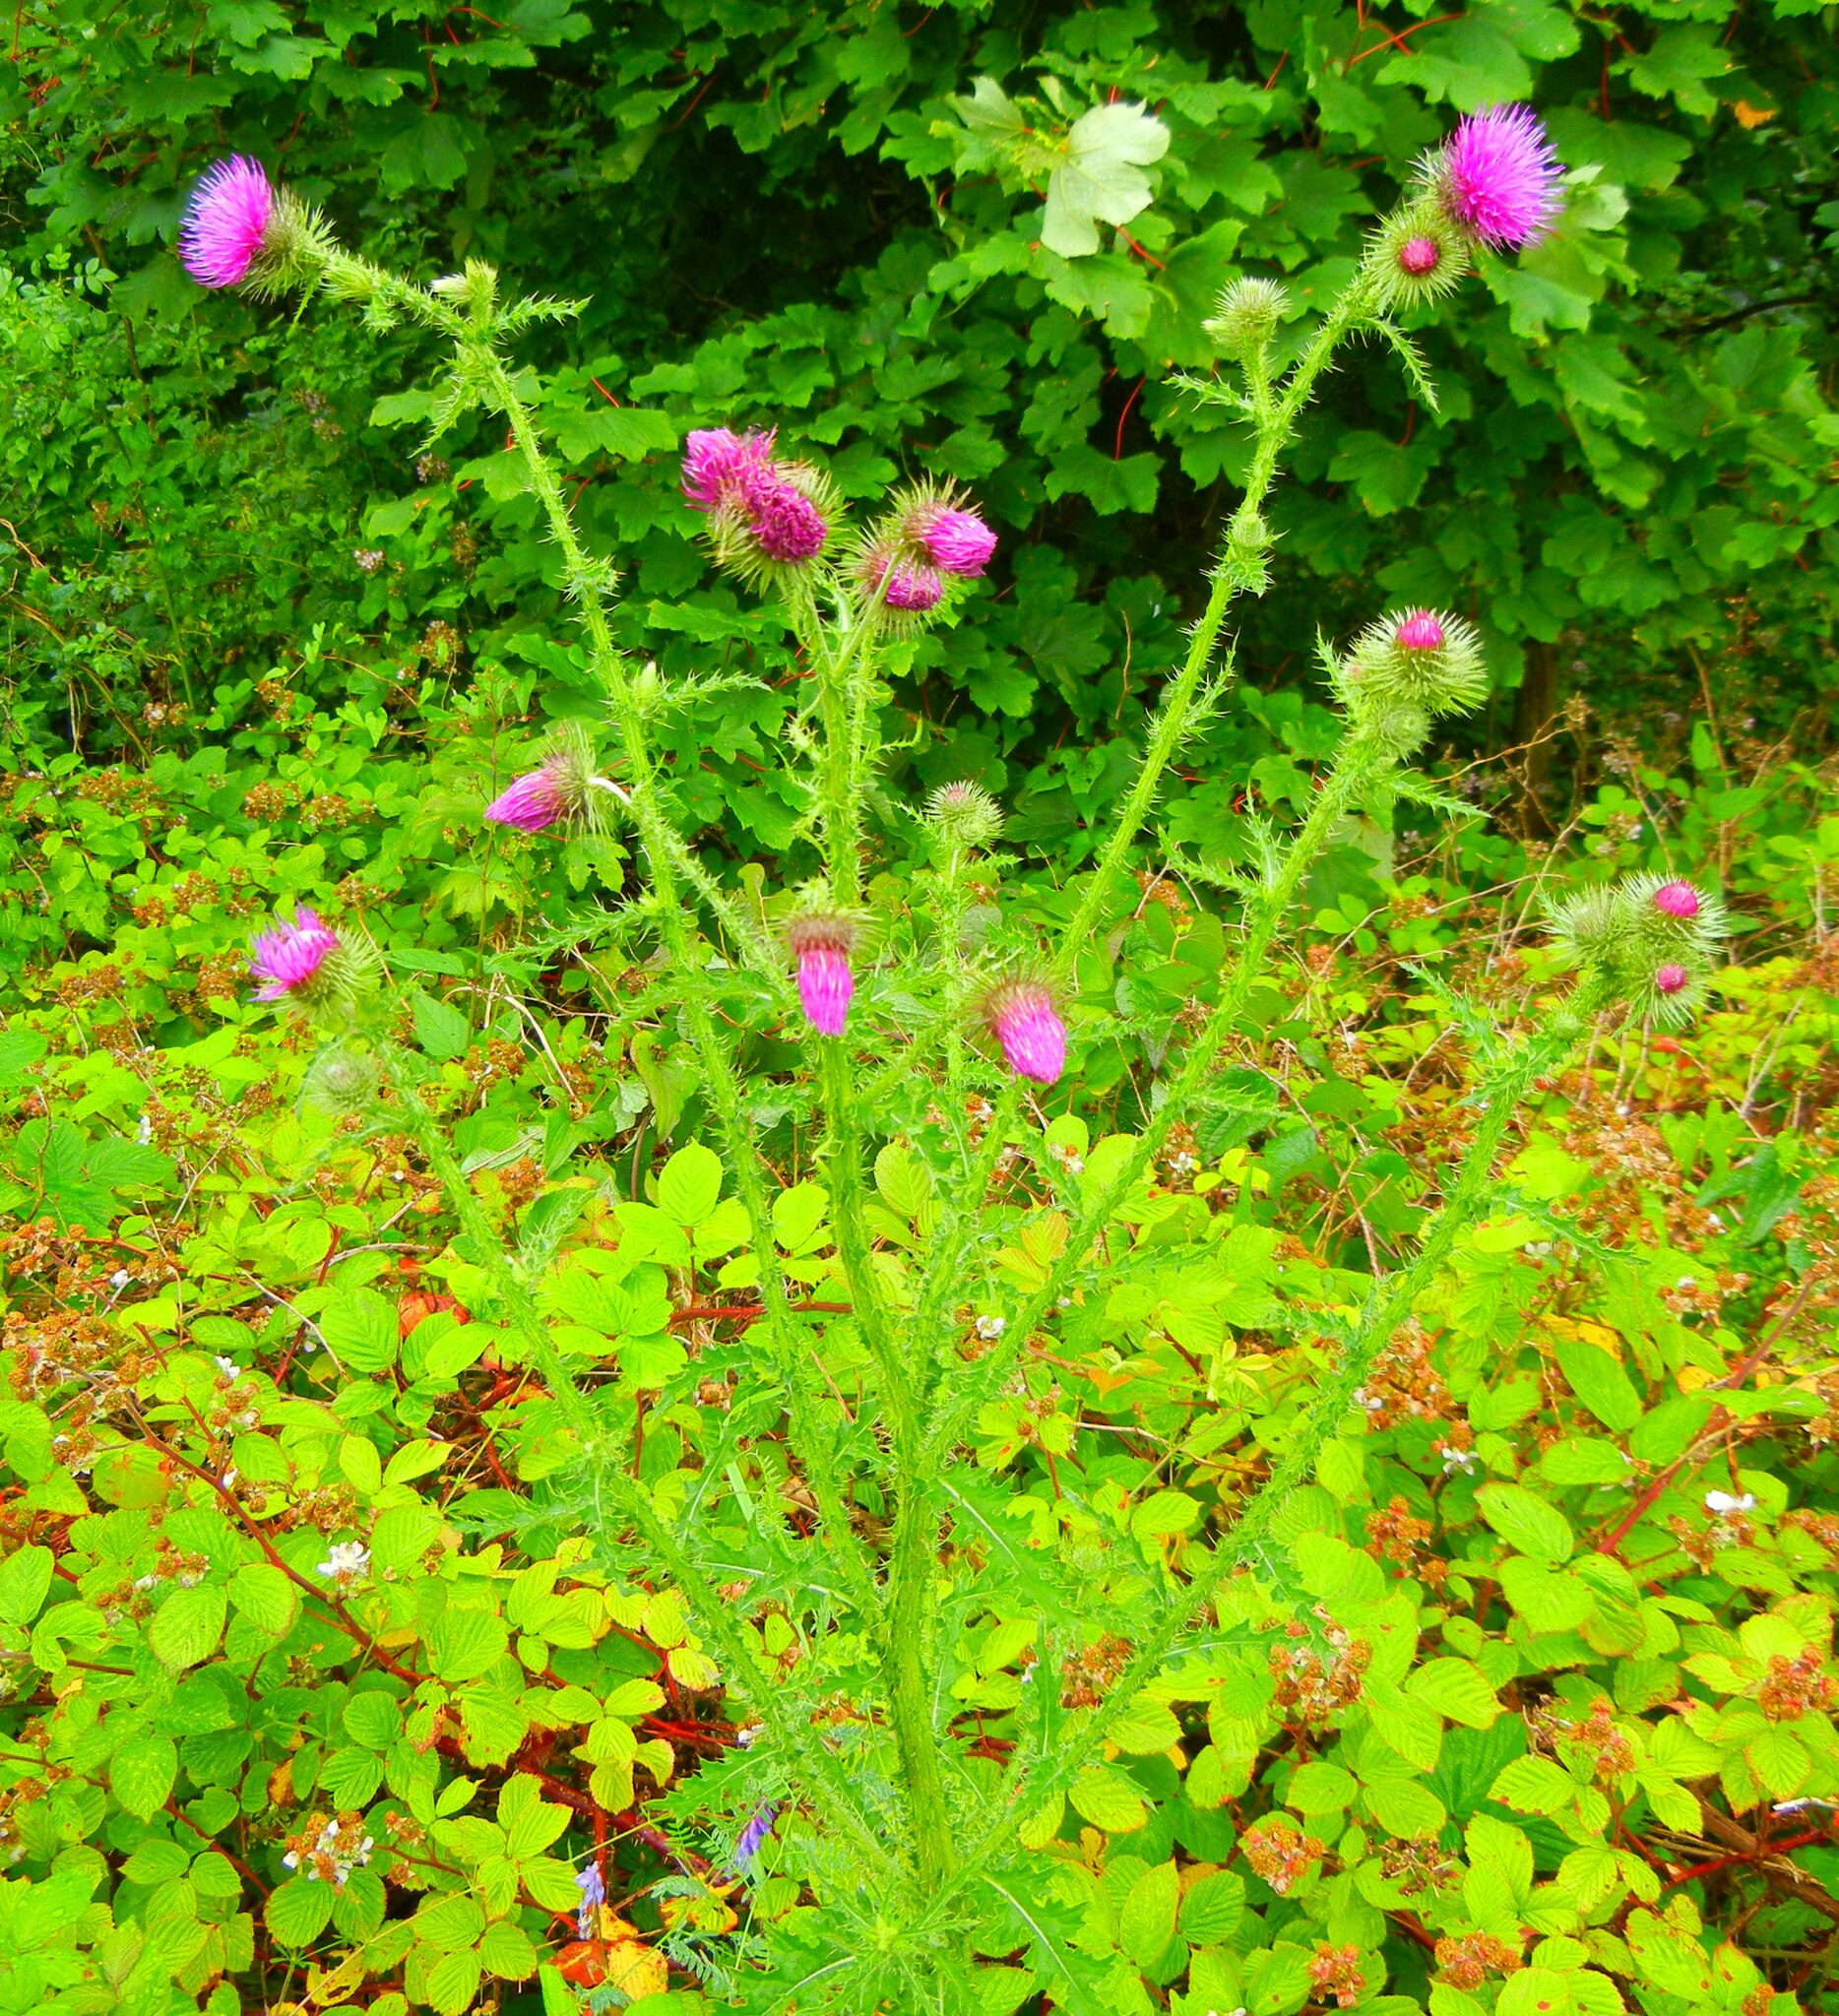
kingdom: Plantae
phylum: Tracheophyta
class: Magnoliopsida
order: Asterales
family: Asteraceae
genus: Carduus
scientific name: Carduus crispus
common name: Welted thistle
